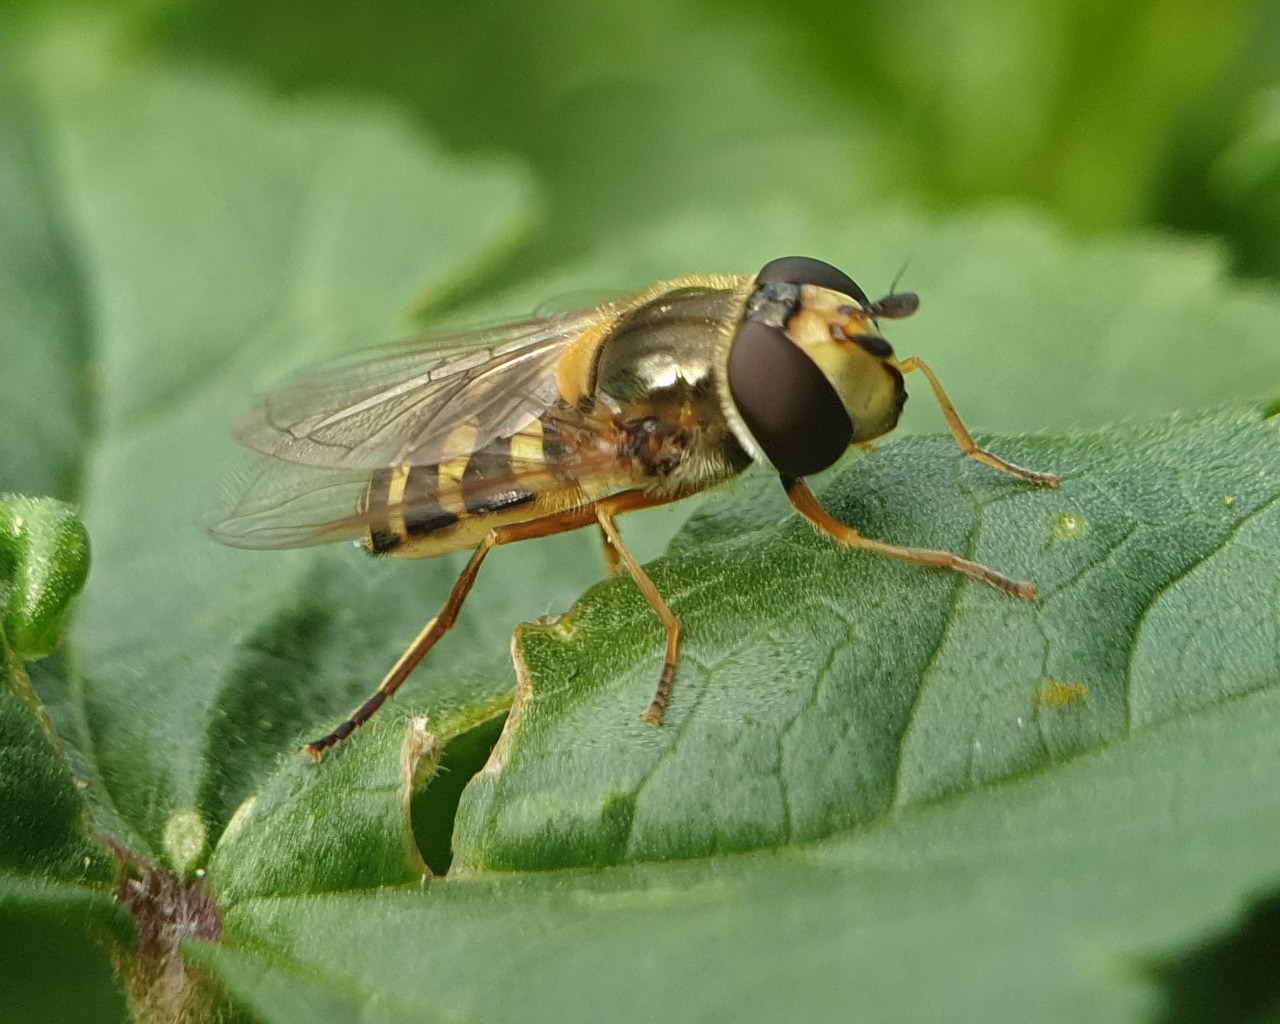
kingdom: Animalia
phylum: Arthropoda
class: Insecta
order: Diptera
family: Syrphidae
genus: Eupeodes
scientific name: Eupeodes corollae
